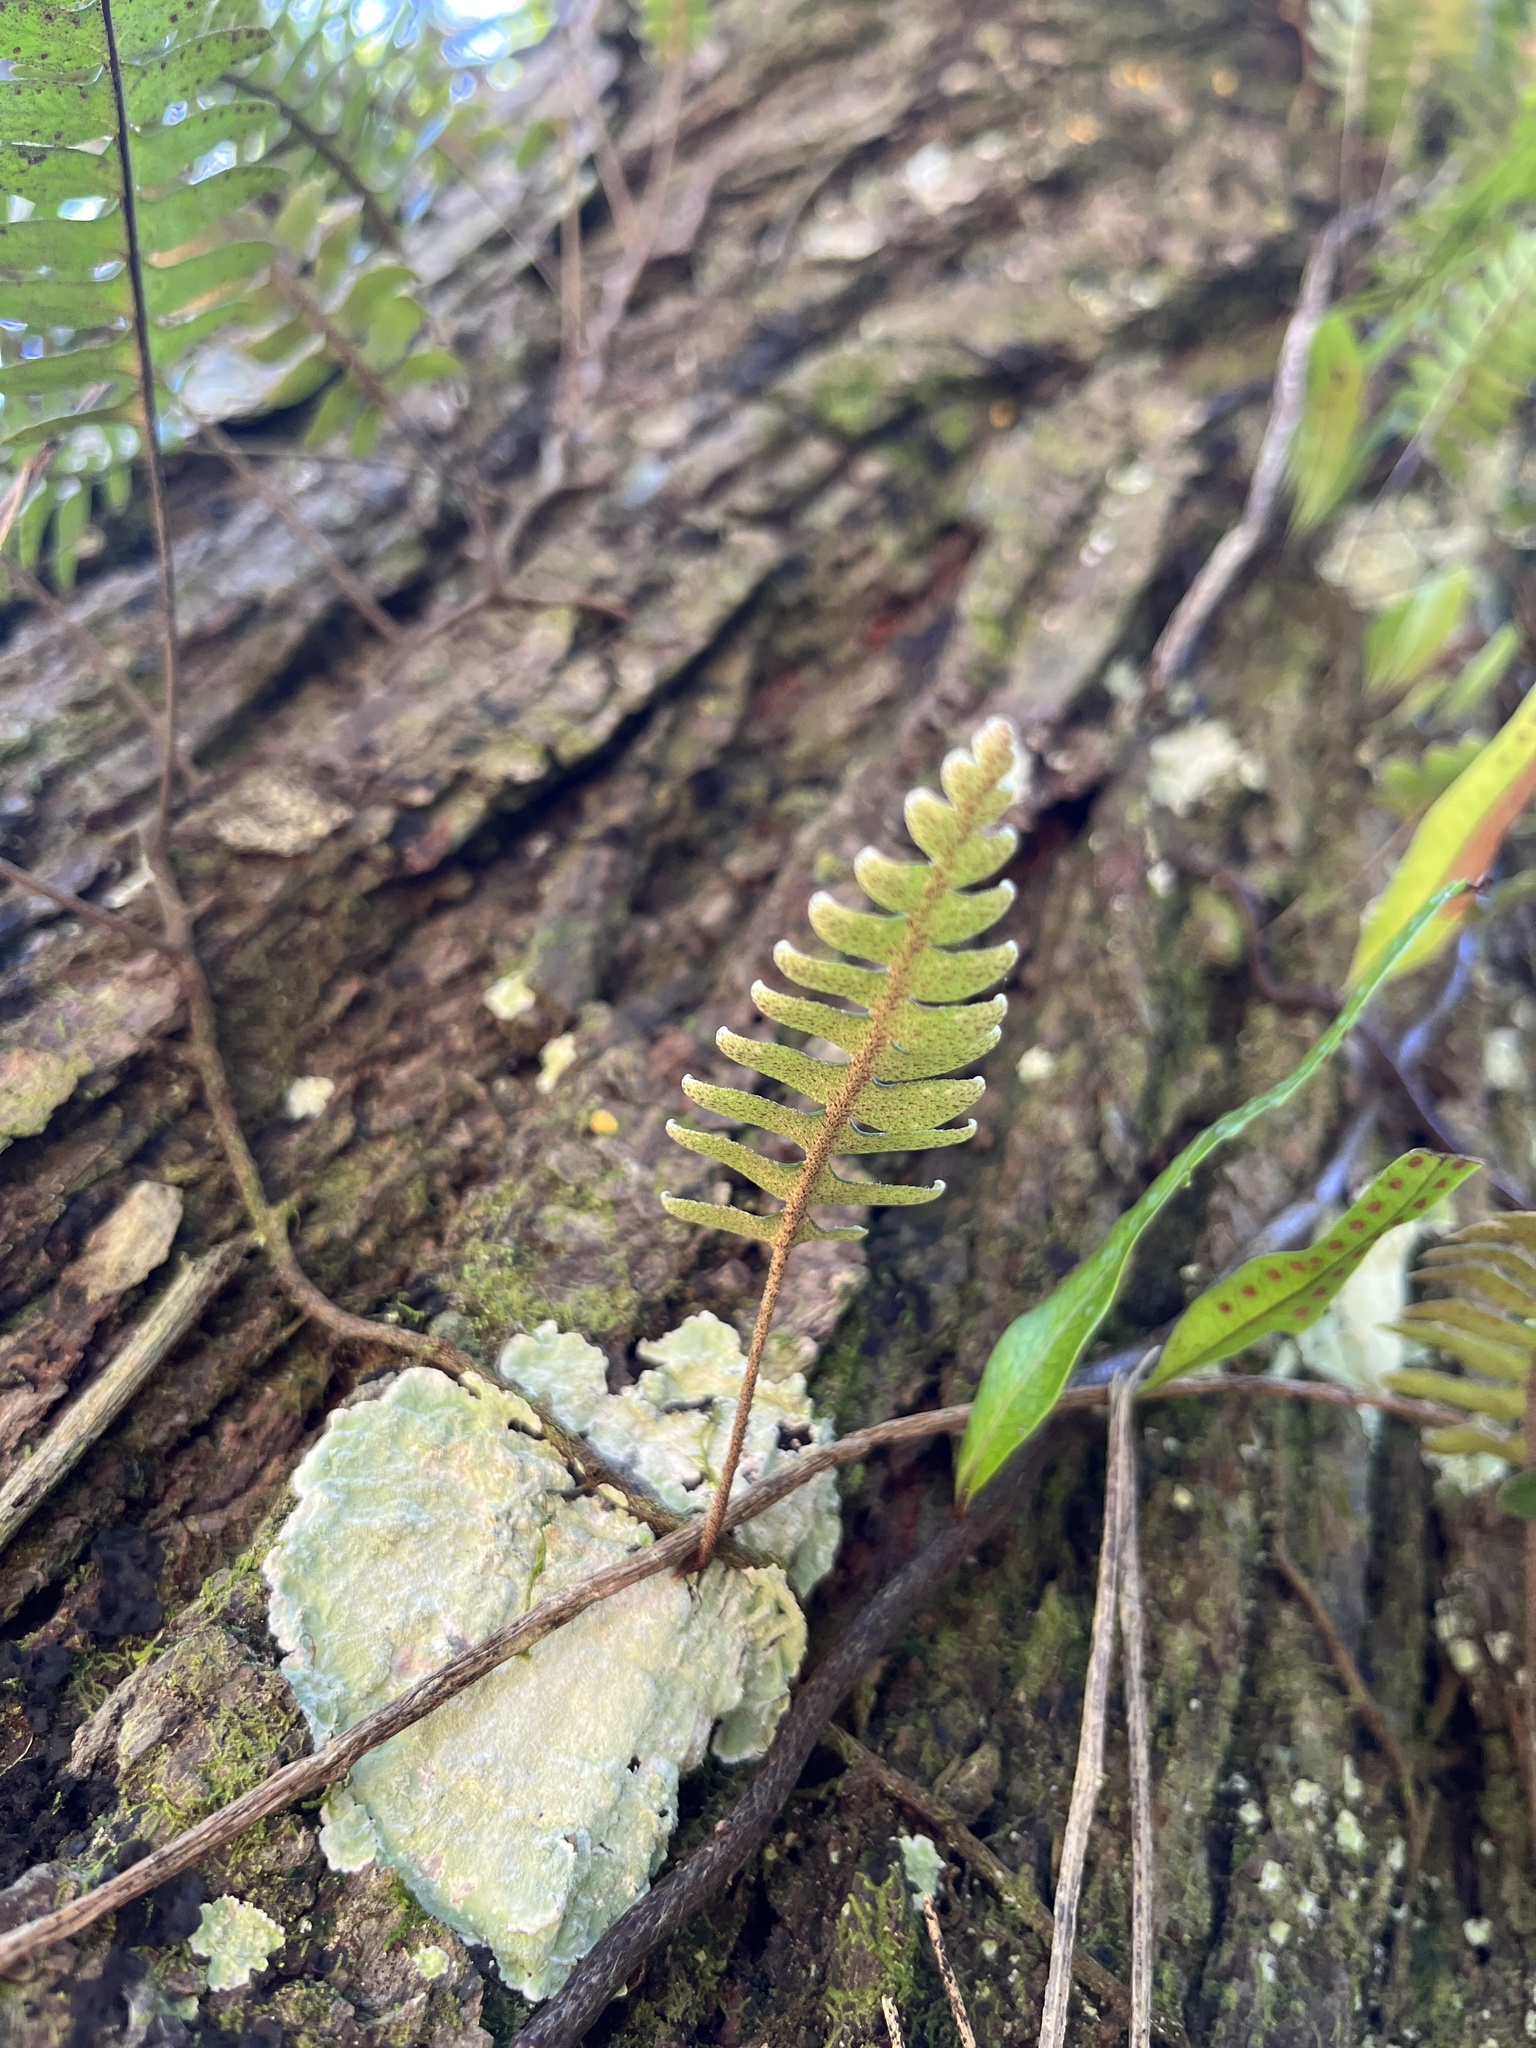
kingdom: Plantae
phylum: Tracheophyta
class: Polypodiopsida
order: Polypodiales
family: Polypodiaceae
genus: Pleopeltis
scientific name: Pleopeltis polypodioides
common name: Resurrection fern
